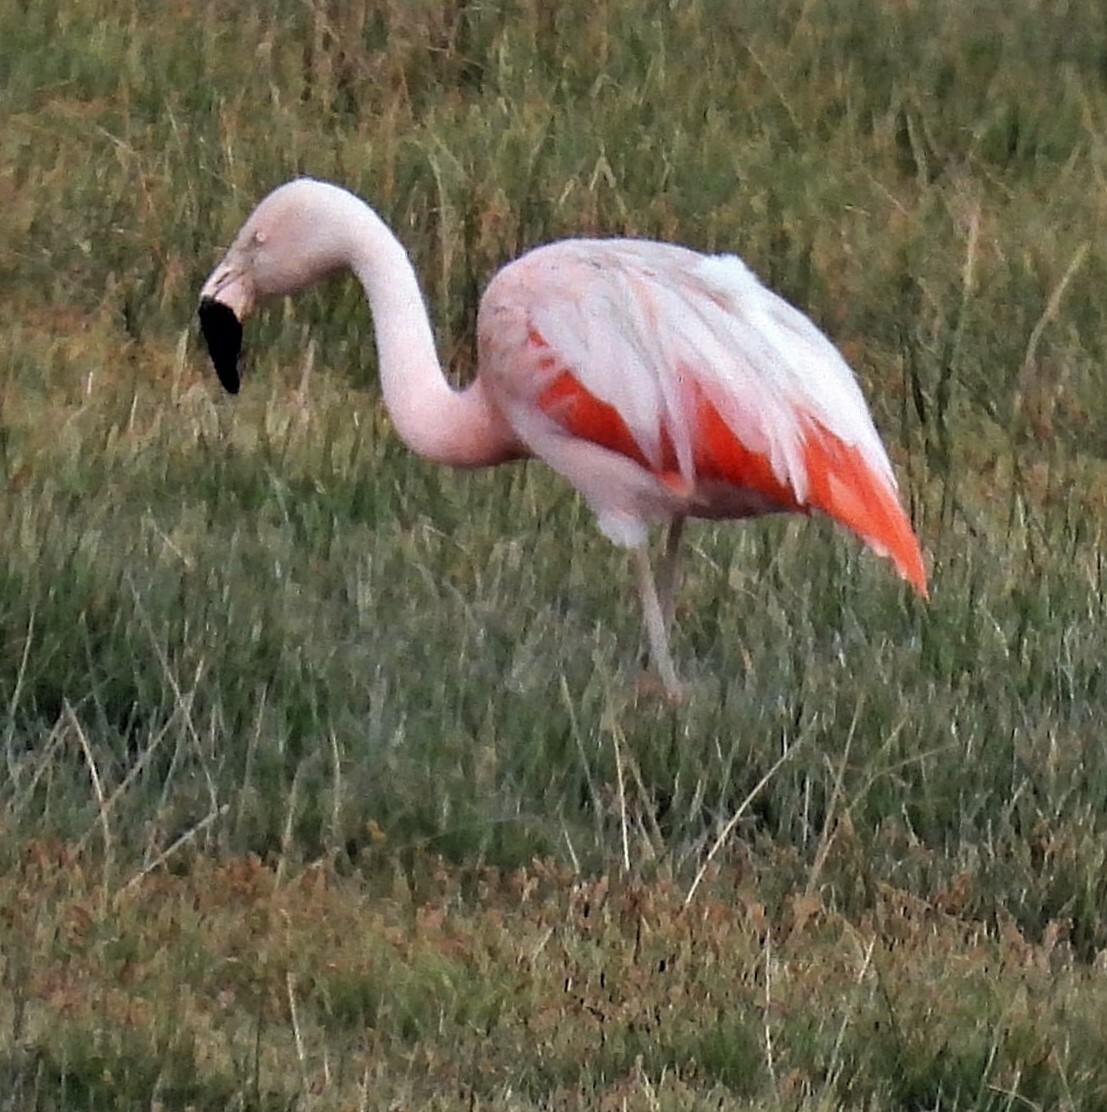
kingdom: Animalia
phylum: Chordata
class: Aves
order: Phoenicopteriformes
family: Phoenicopteridae
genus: Phoenicopterus
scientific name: Phoenicopterus chilensis
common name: Chilean flamingo
